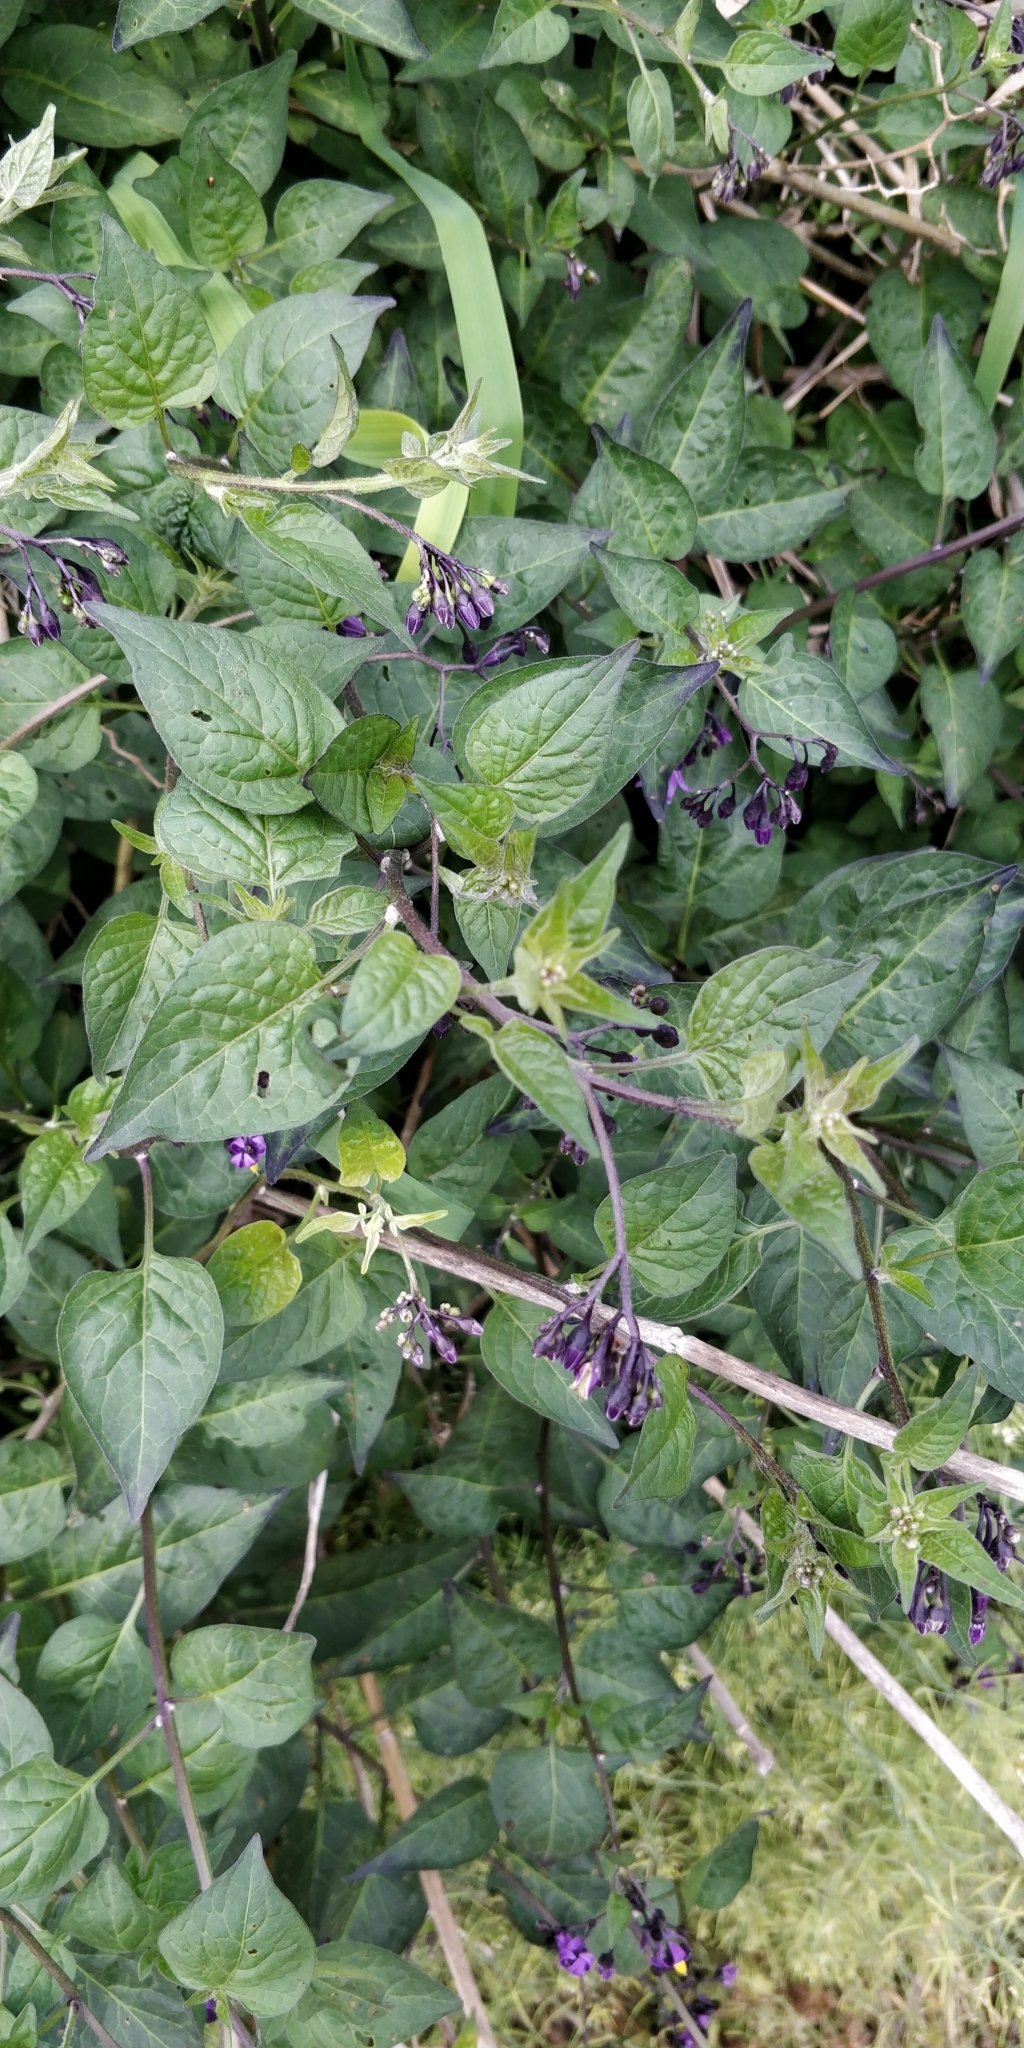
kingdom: Plantae
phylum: Tracheophyta
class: Magnoliopsida
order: Solanales
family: Solanaceae
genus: Solanum
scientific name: Solanum dulcamara
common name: Climbing nightshade
